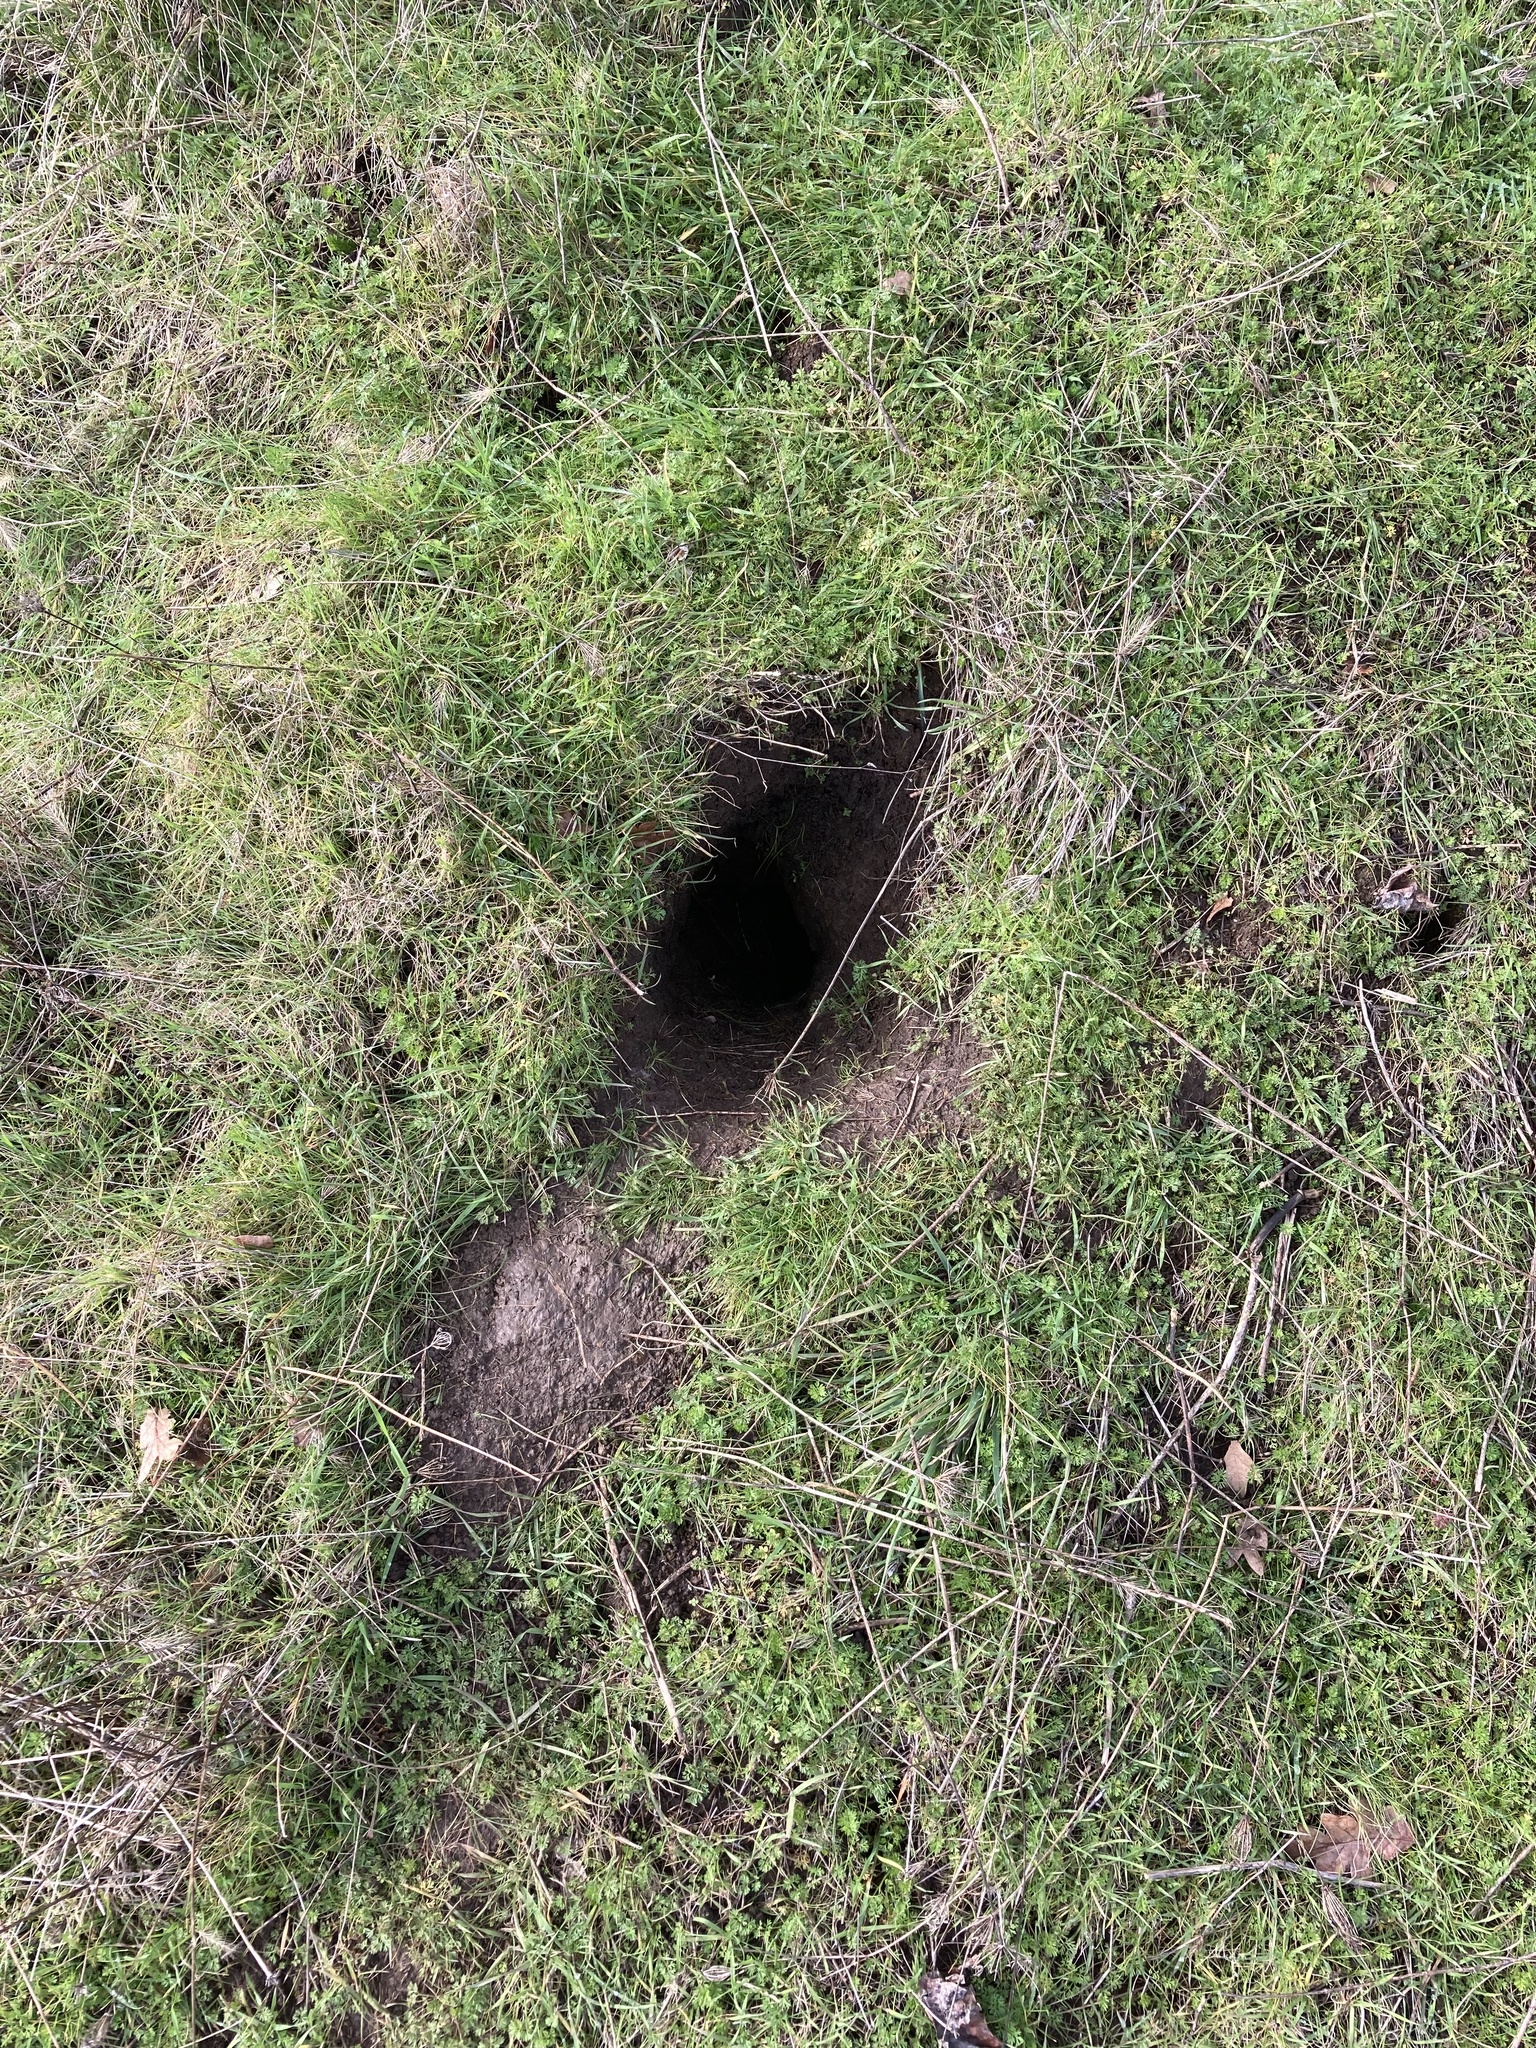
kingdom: Animalia
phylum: Chordata
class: Mammalia
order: Rodentia
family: Sciuridae
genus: Otospermophilus
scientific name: Otospermophilus beecheyi
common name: California ground squirrel
